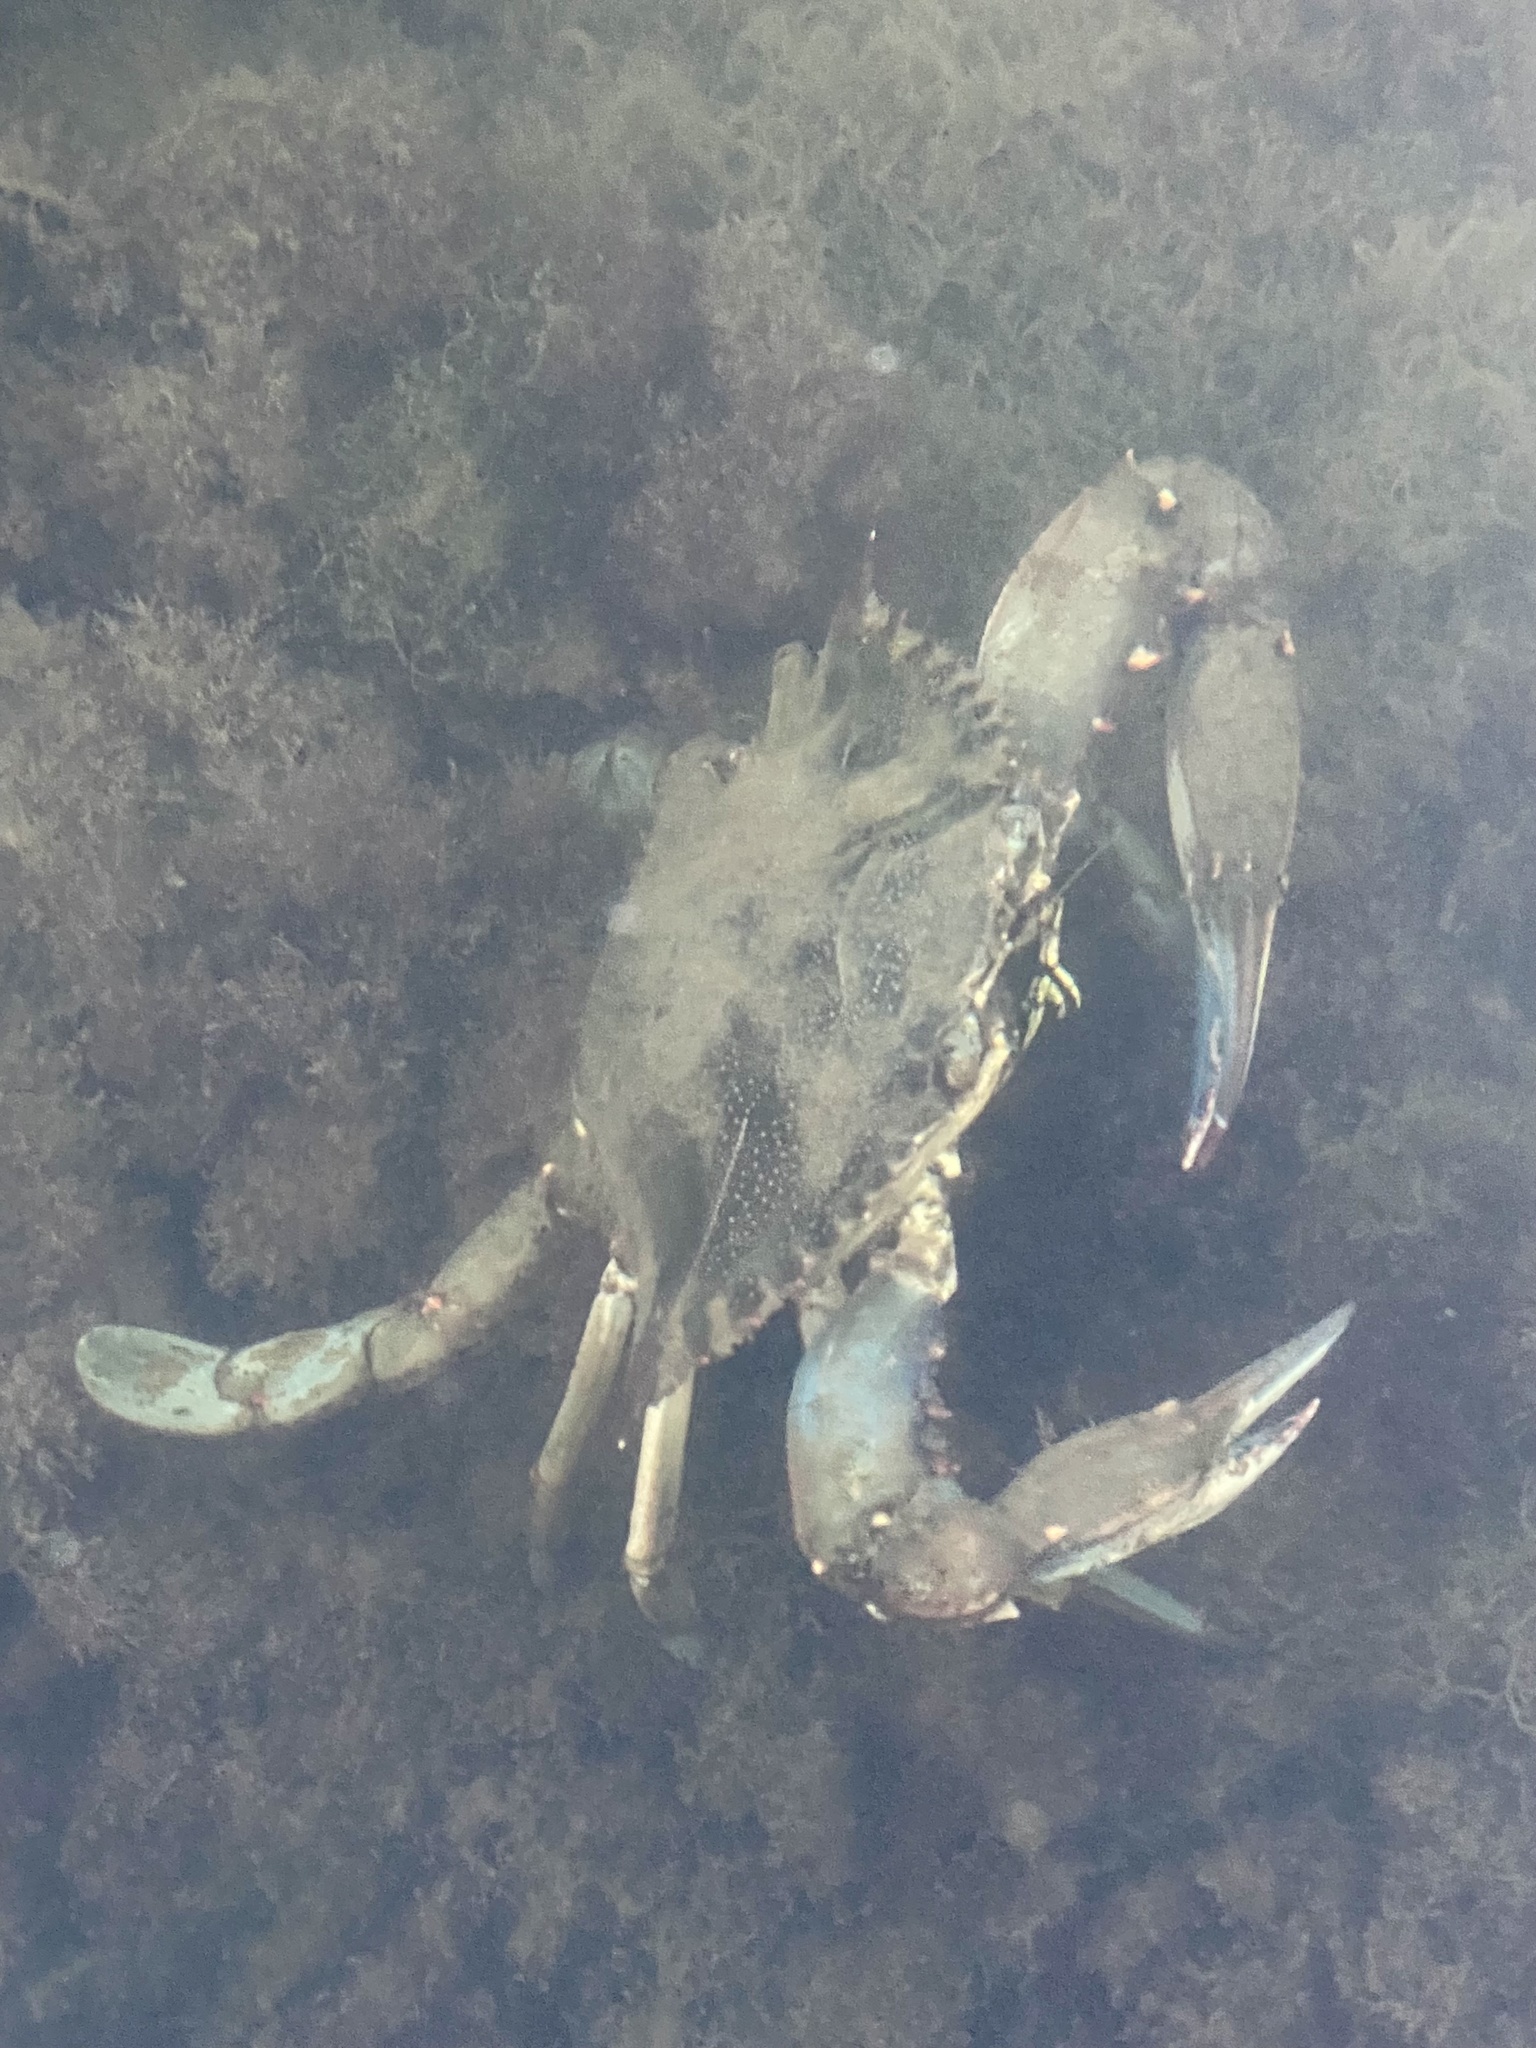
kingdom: Animalia
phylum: Arthropoda
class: Malacostraca
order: Decapoda
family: Portunidae
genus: Callinectes
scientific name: Callinectes sapidus
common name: Blue crab
